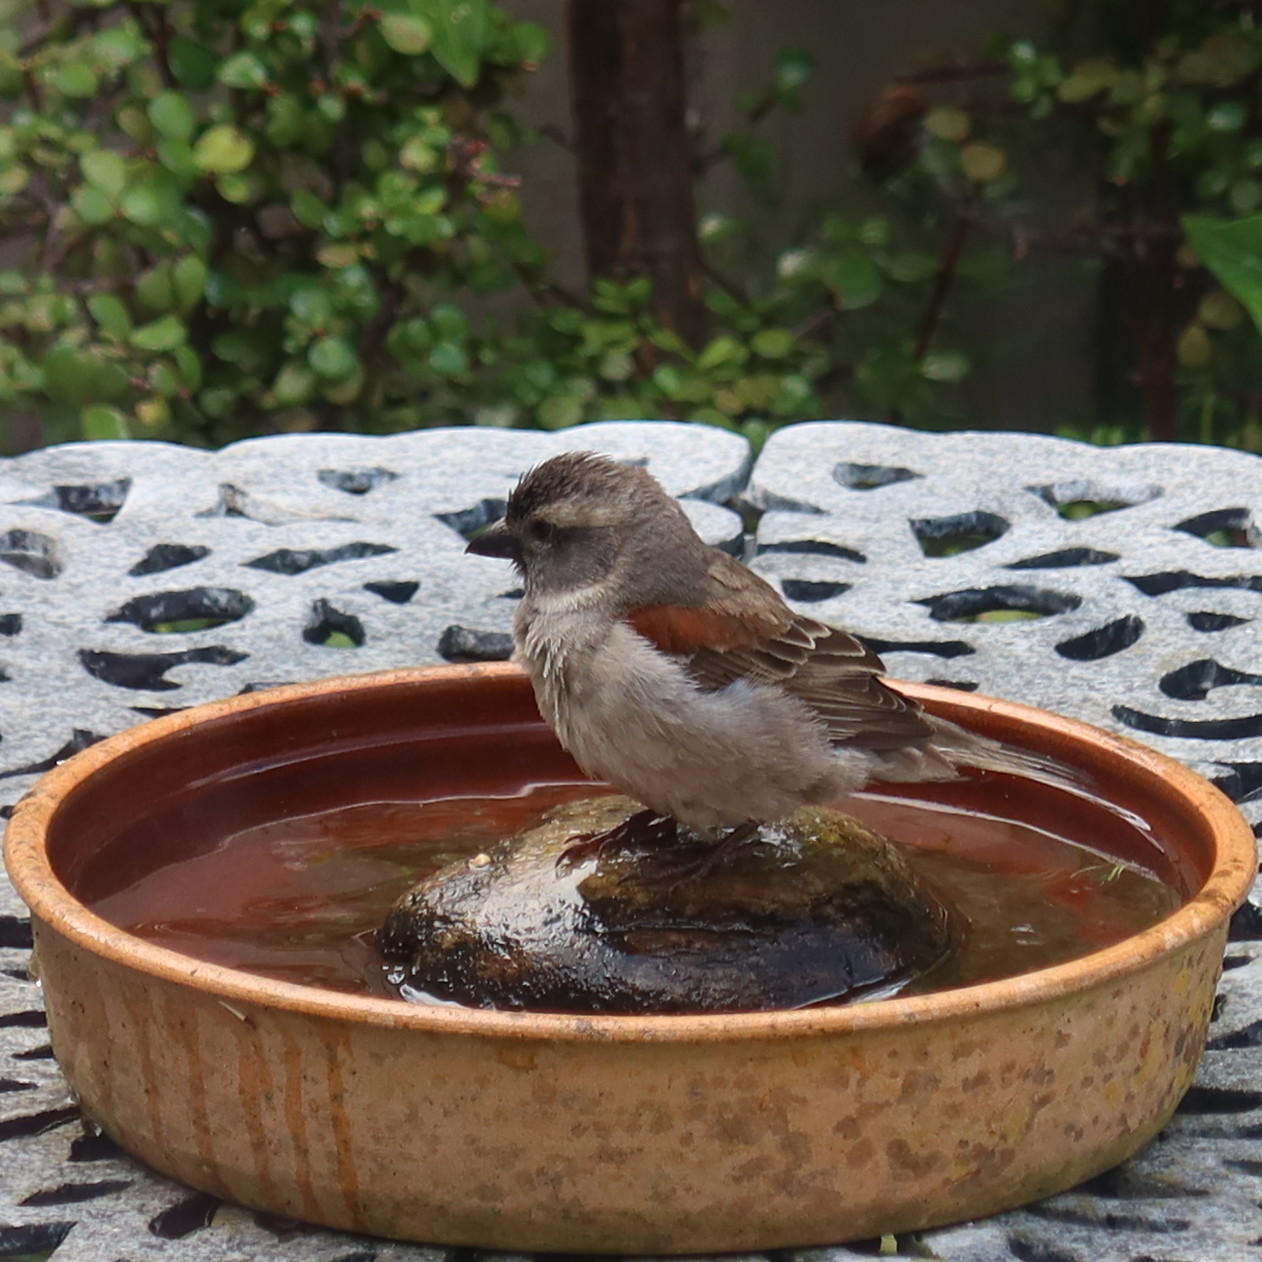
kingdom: Animalia
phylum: Chordata
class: Aves
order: Passeriformes
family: Passeridae
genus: Passer
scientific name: Passer melanurus
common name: Cape sparrow
